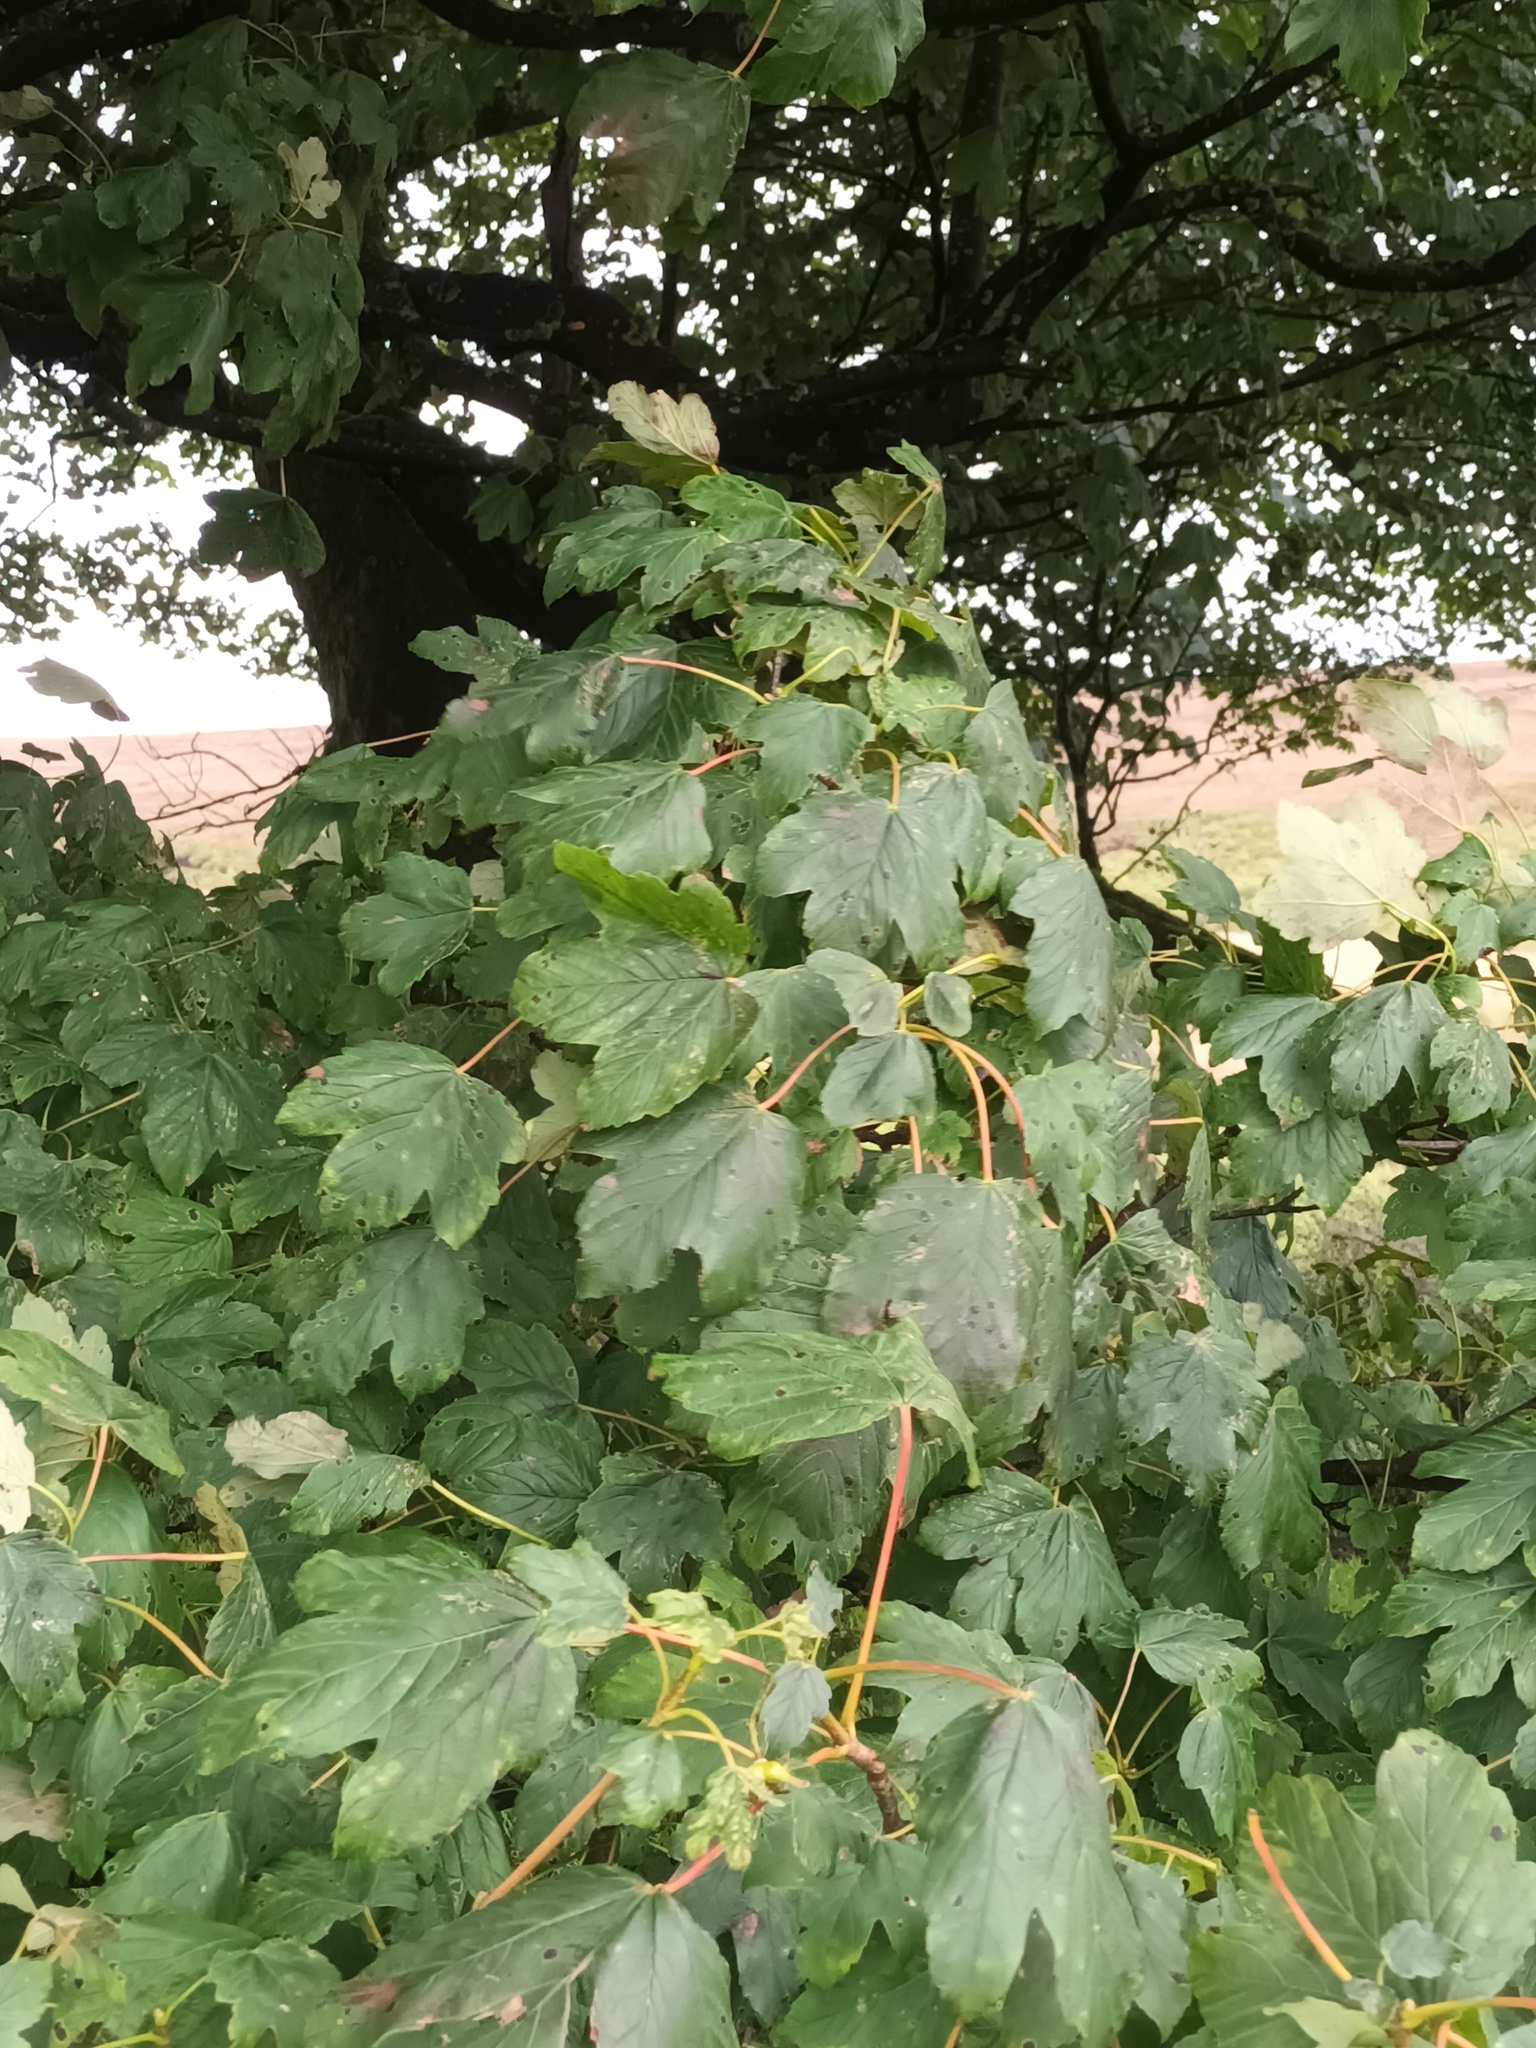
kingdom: Plantae
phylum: Tracheophyta
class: Magnoliopsida
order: Sapindales
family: Sapindaceae
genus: Acer
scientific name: Acer pseudoplatanus
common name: Sycamore
